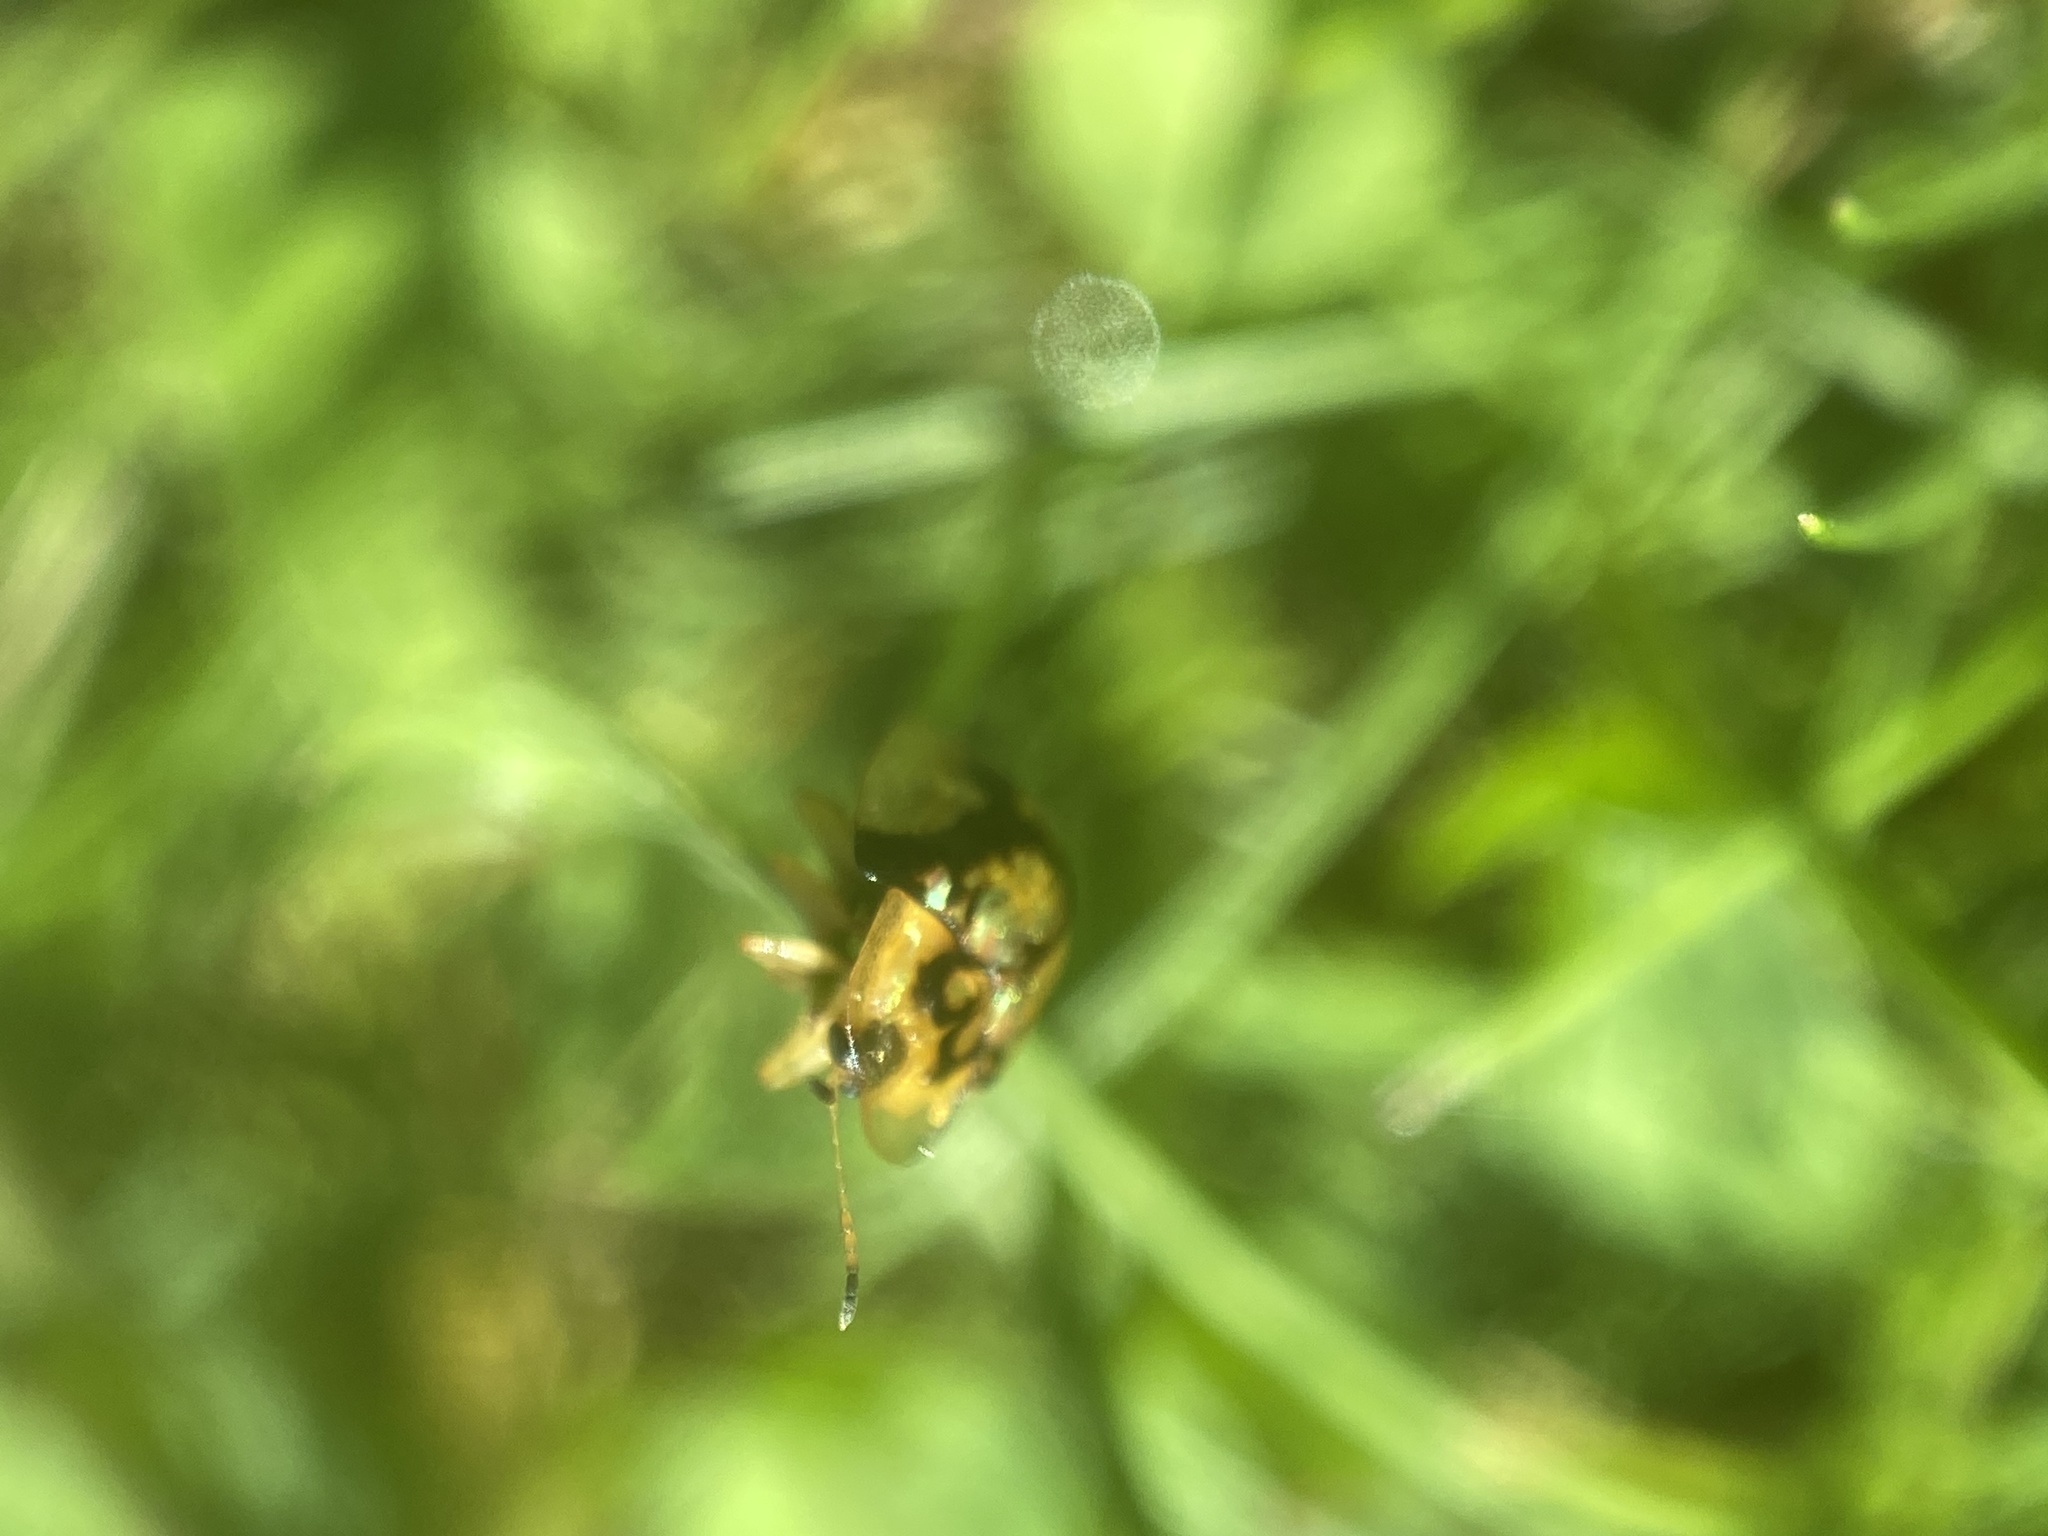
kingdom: Animalia
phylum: Arthropoda
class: Insecta
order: Coleoptera
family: Chrysomelidae
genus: Deloyala
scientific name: Deloyala guttata
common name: Mottled tortoise beetle
